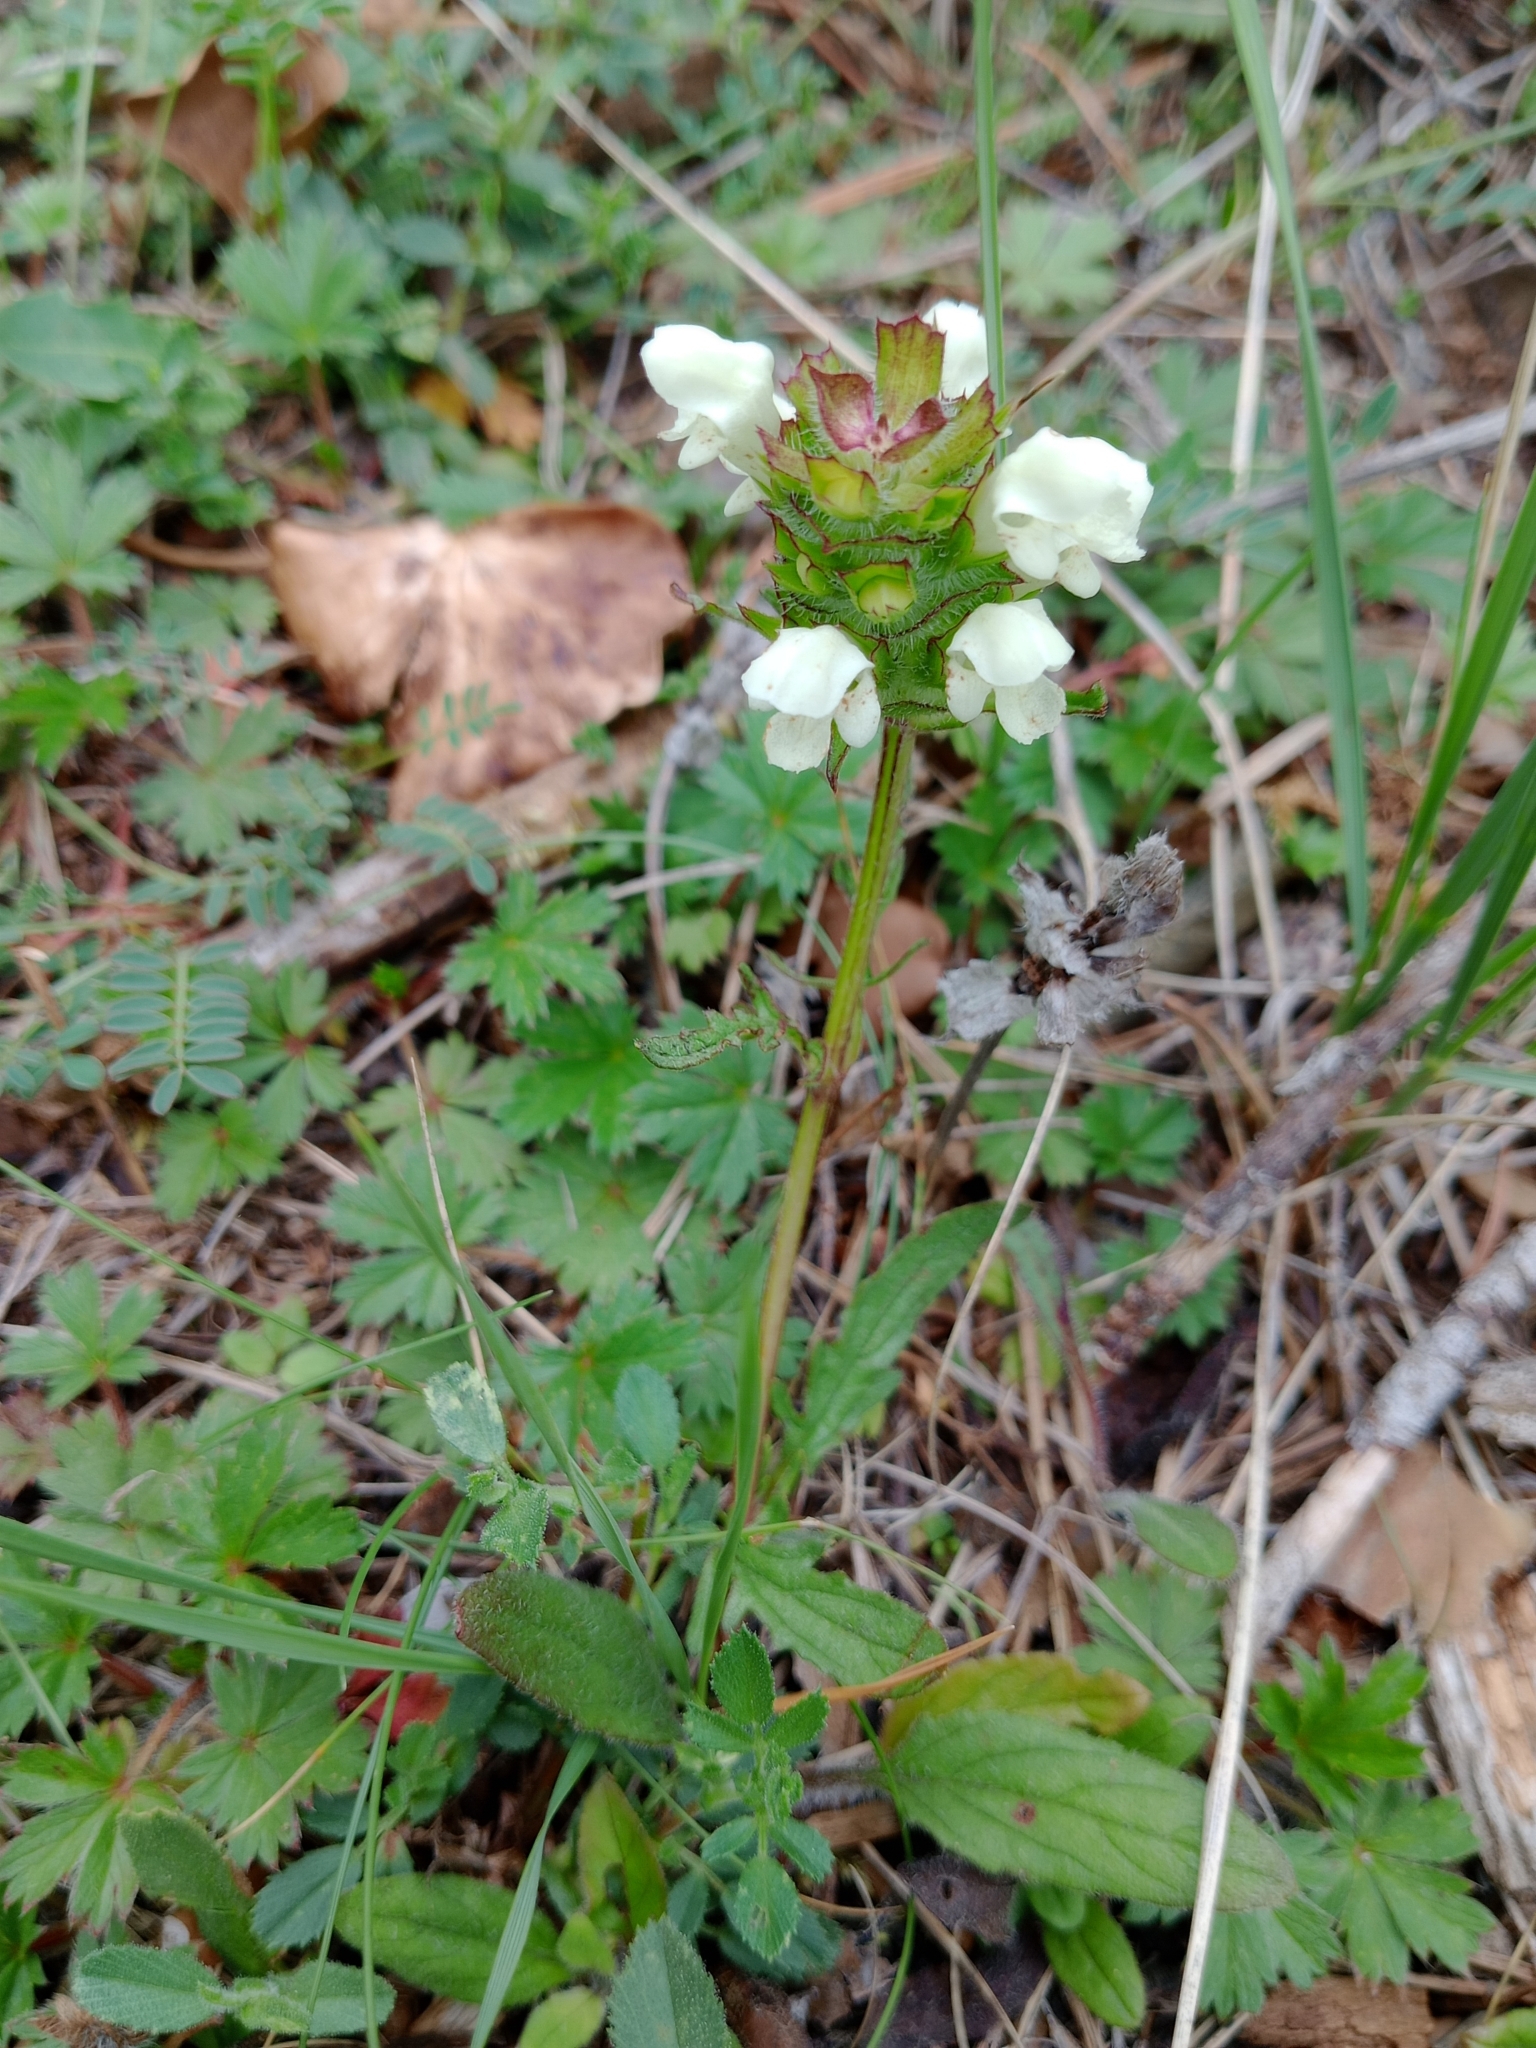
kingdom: Plantae
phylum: Tracheophyta
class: Magnoliopsida
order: Lamiales
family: Lamiaceae
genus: Prunella
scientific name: Prunella laciniata
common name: Cut-leaved selfheal
